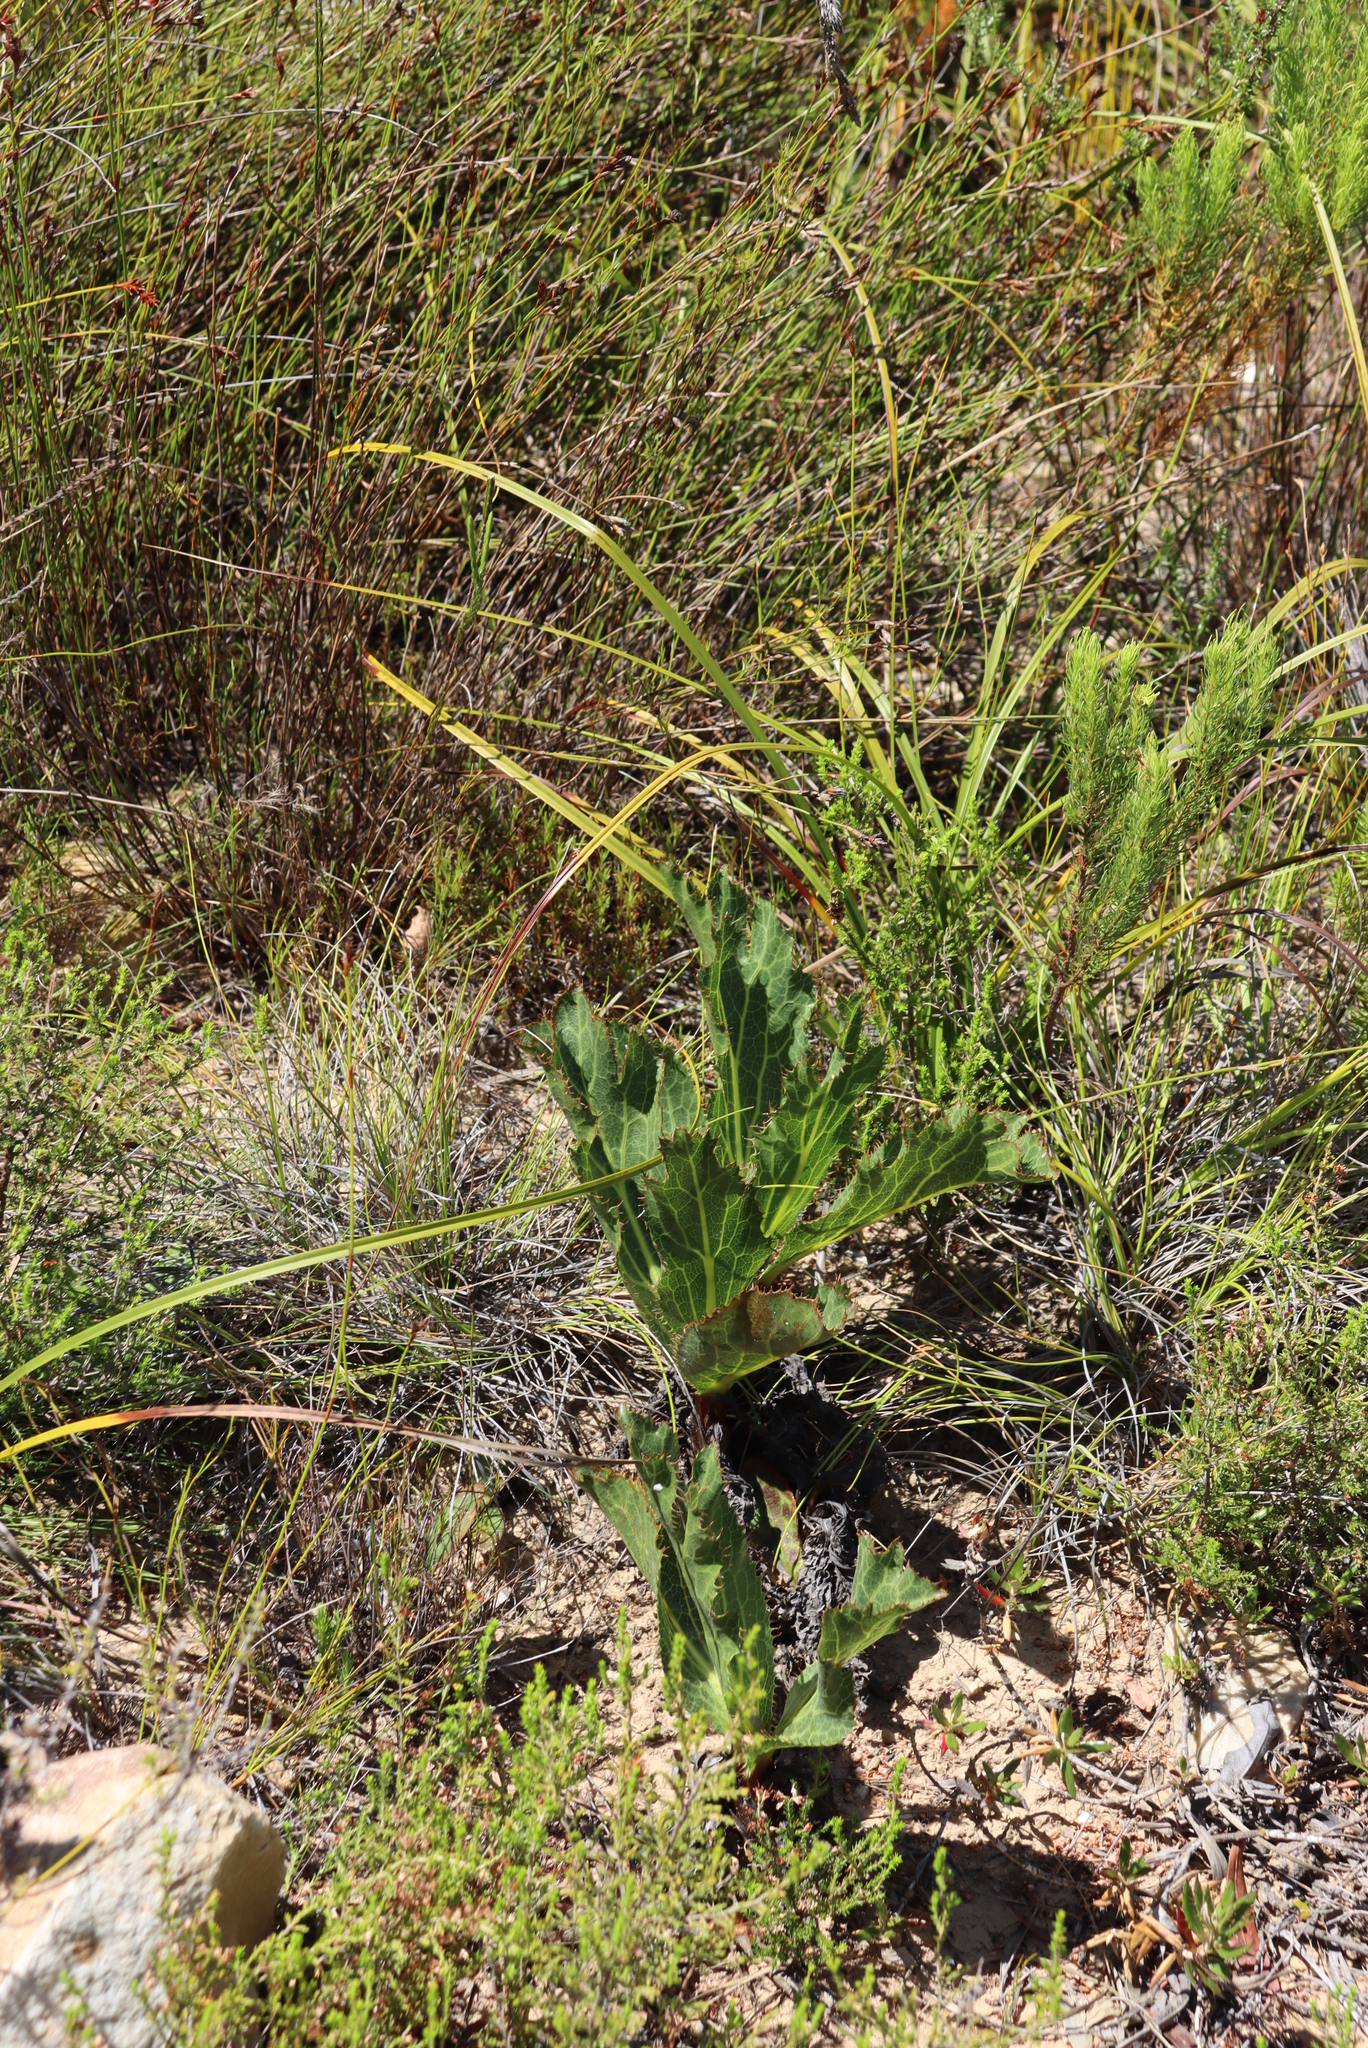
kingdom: Plantae
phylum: Tracheophyta
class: Magnoliopsida
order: Apiales
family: Apiaceae
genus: Lichtensteinia
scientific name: Lichtensteinia lacera
